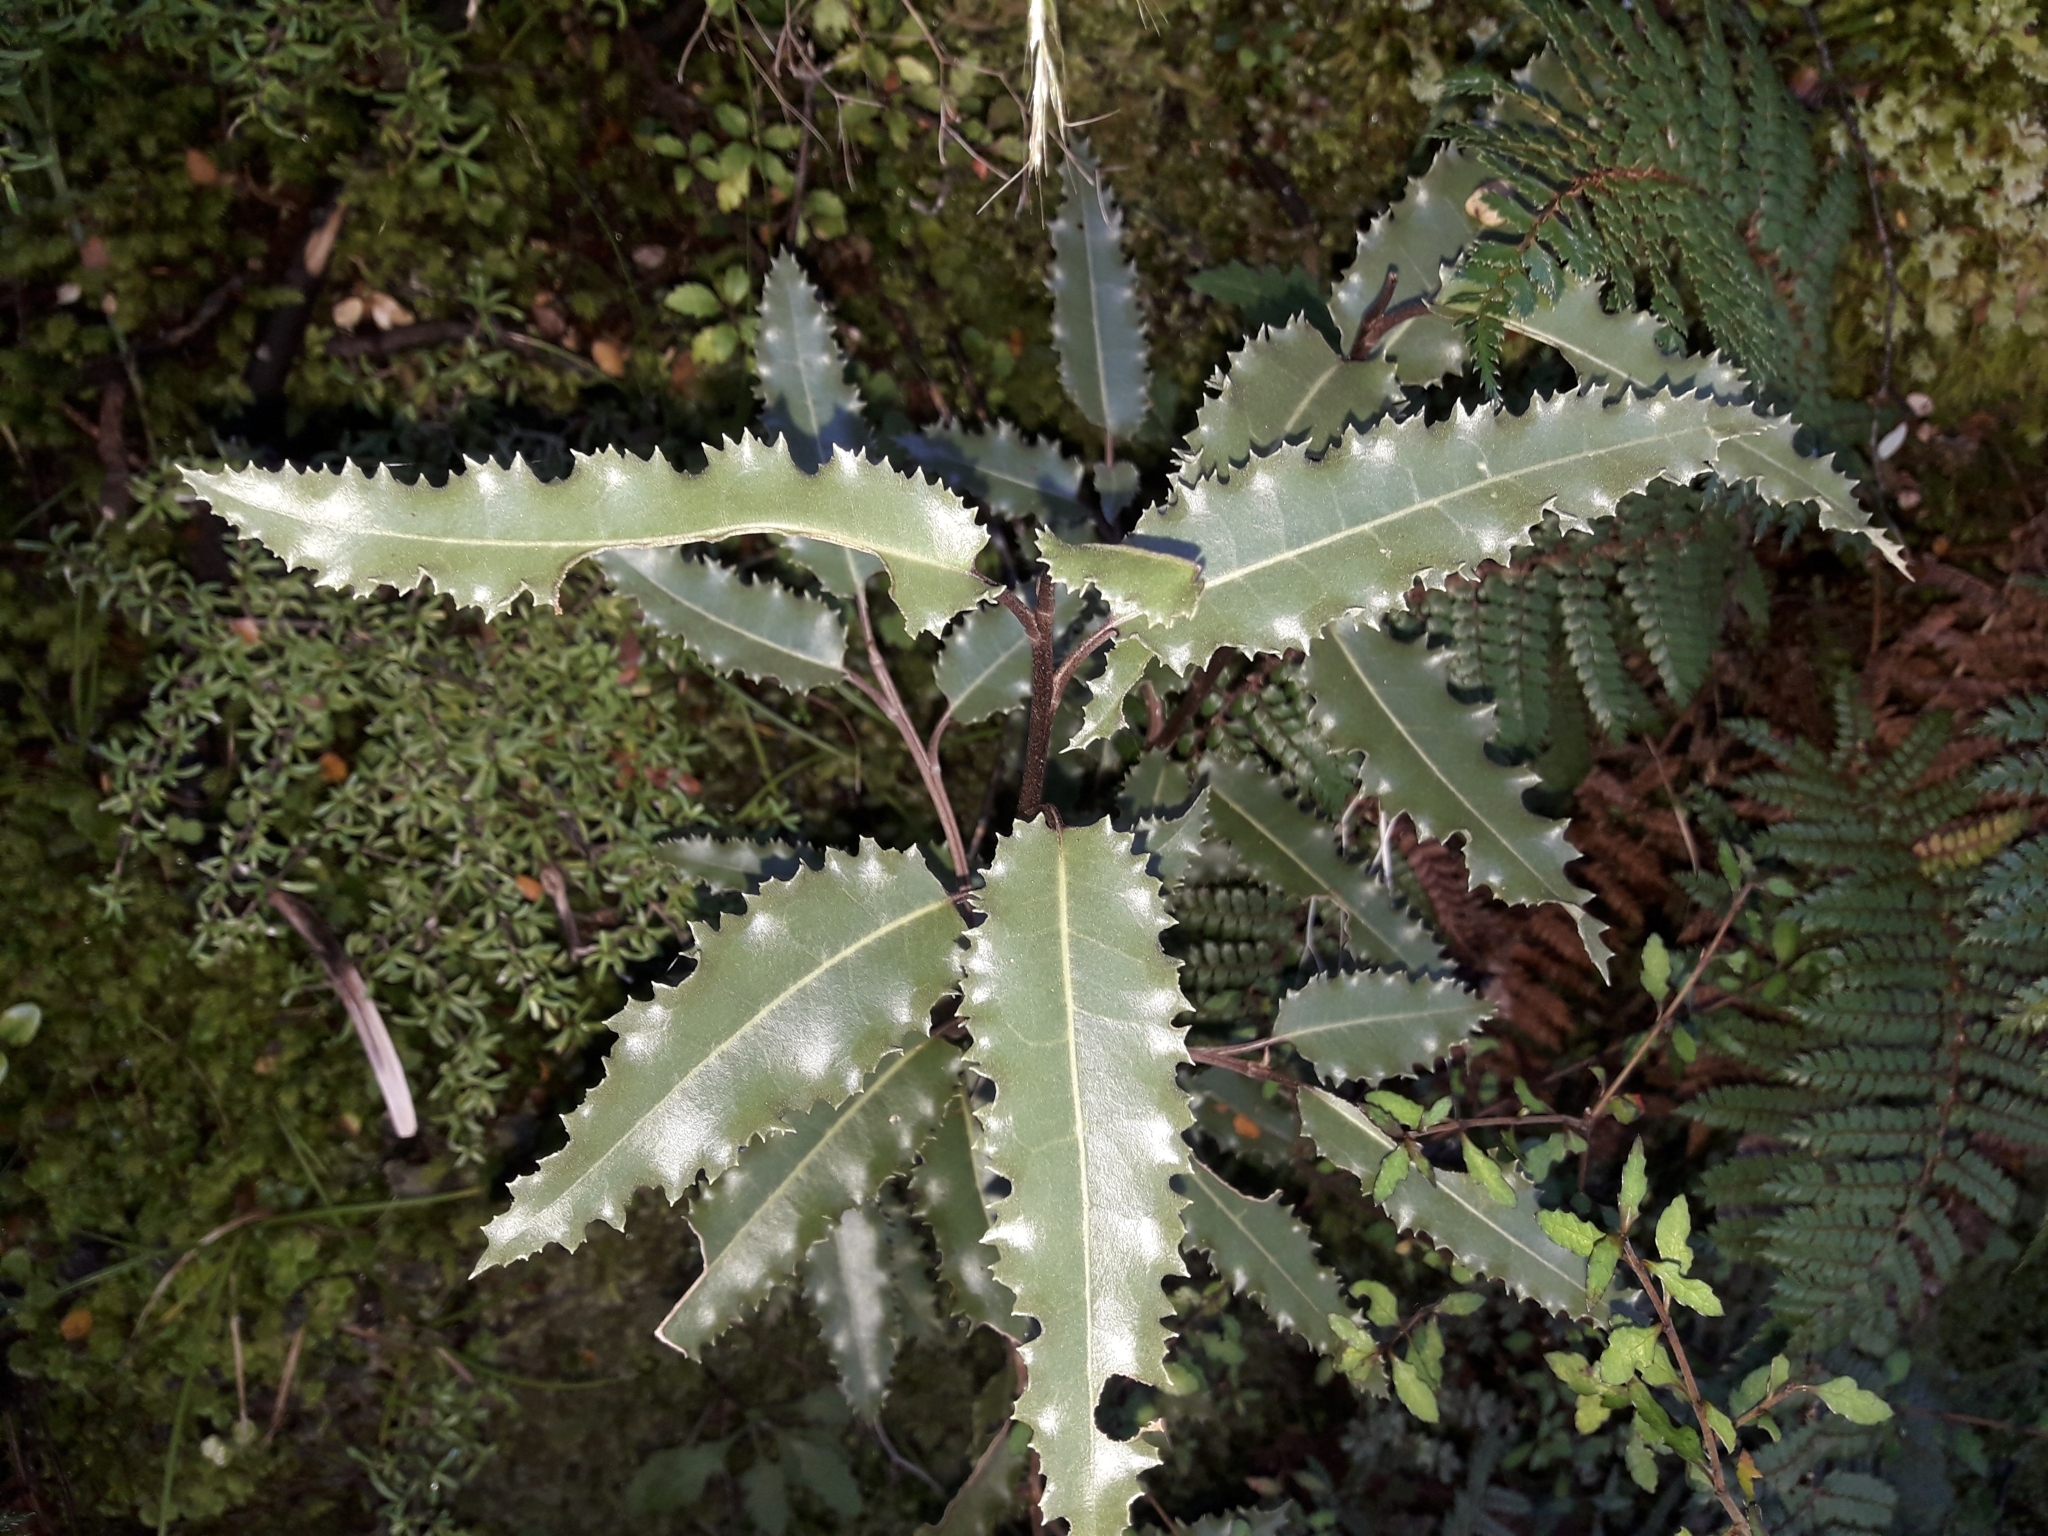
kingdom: Plantae
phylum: Tracheophyta
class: Magnoliopsida
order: Asterales
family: Asteraceae
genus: Olearia
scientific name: Olearia ilicifolia
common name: Maori-holly
